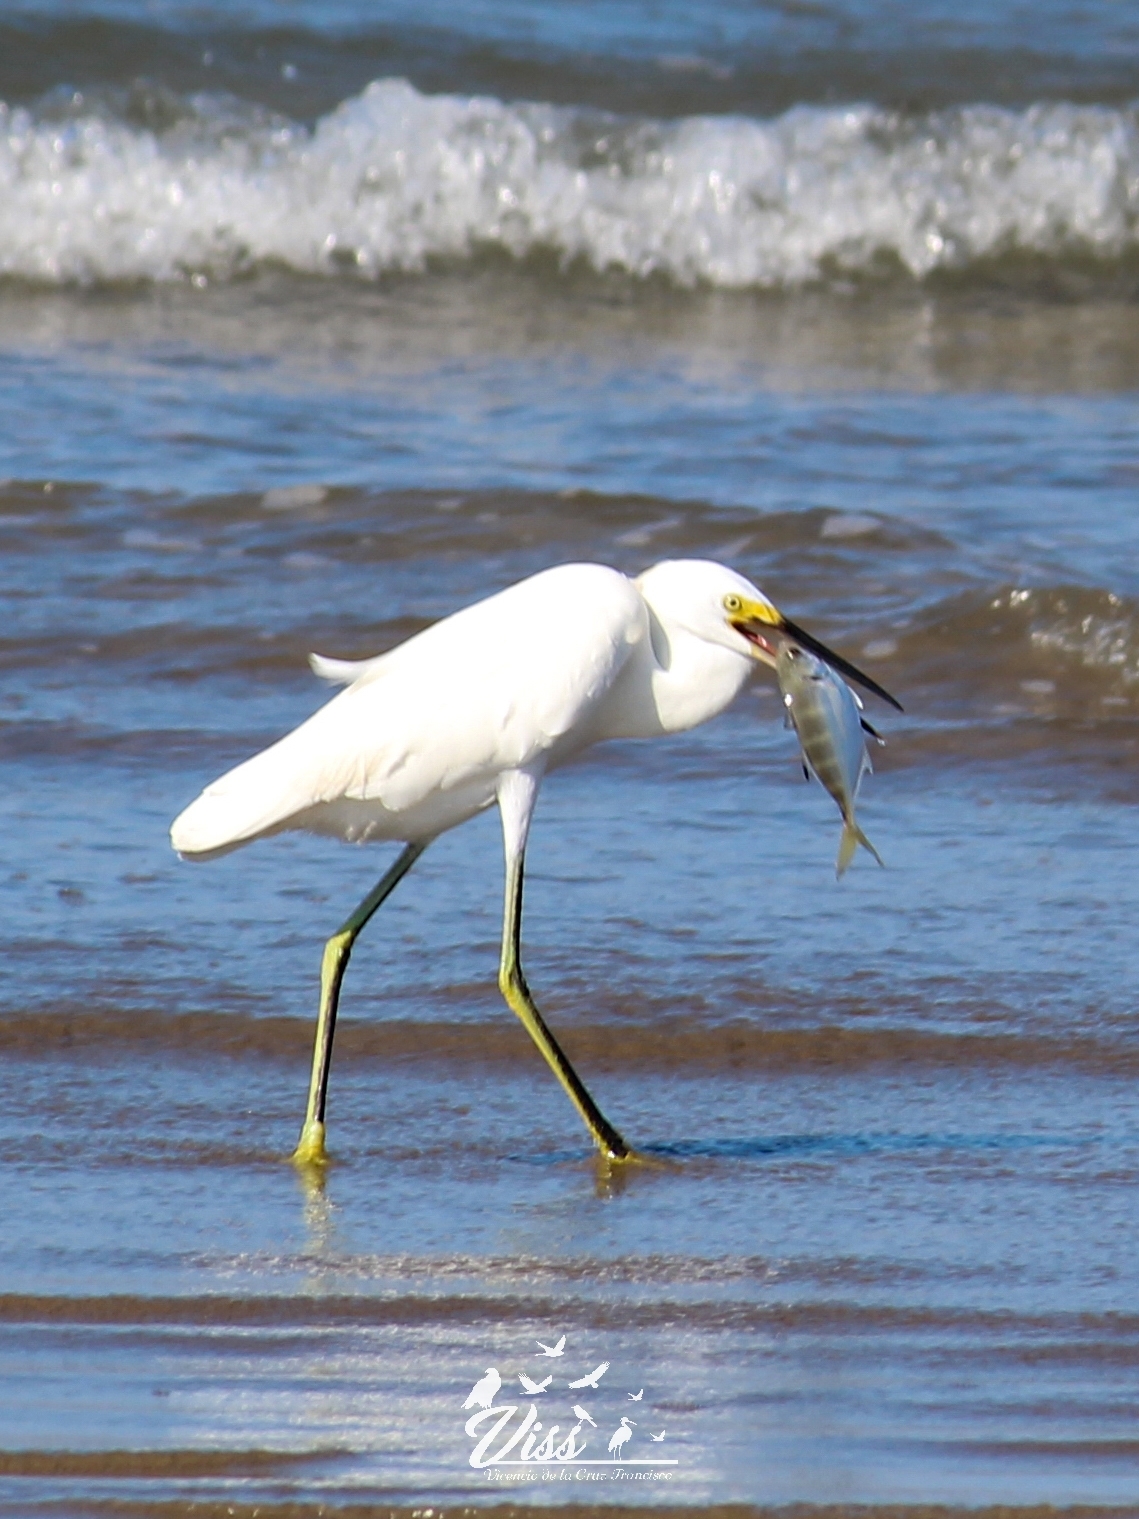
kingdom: Animalia
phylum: Chordata
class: Aves
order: Pelecaniformes
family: Ardeidae
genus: Egretta
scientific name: Egretta thula
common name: Snowy egret
